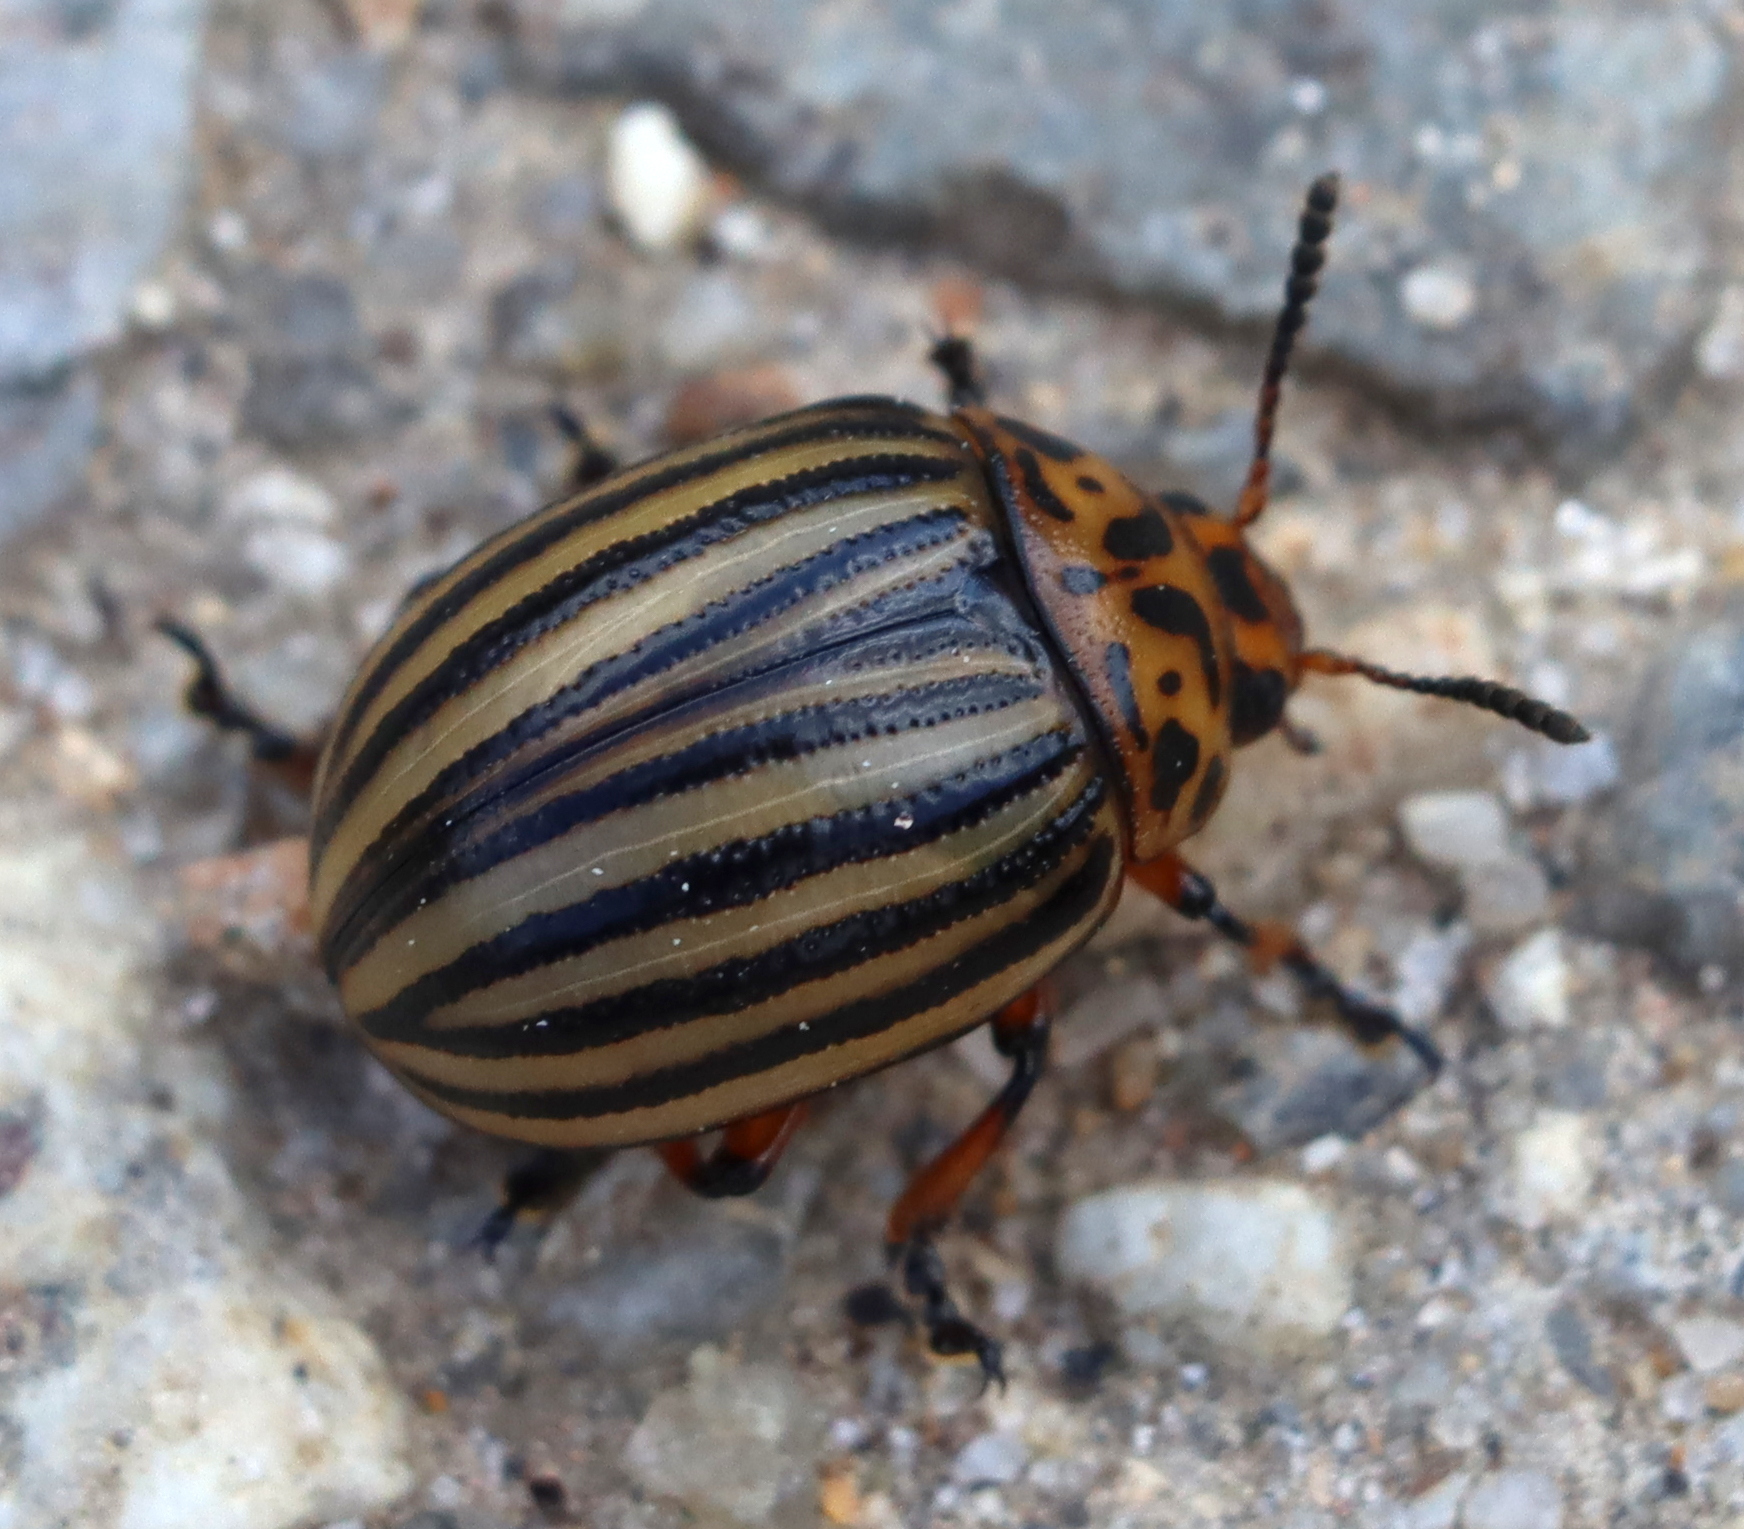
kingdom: Animalia
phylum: Arthropoda
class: Insecta
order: Coleoptera
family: Chrysomelidae
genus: Leptinotarsa
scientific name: Leptinotarsa decemlineata
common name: Colorado potato beetle
